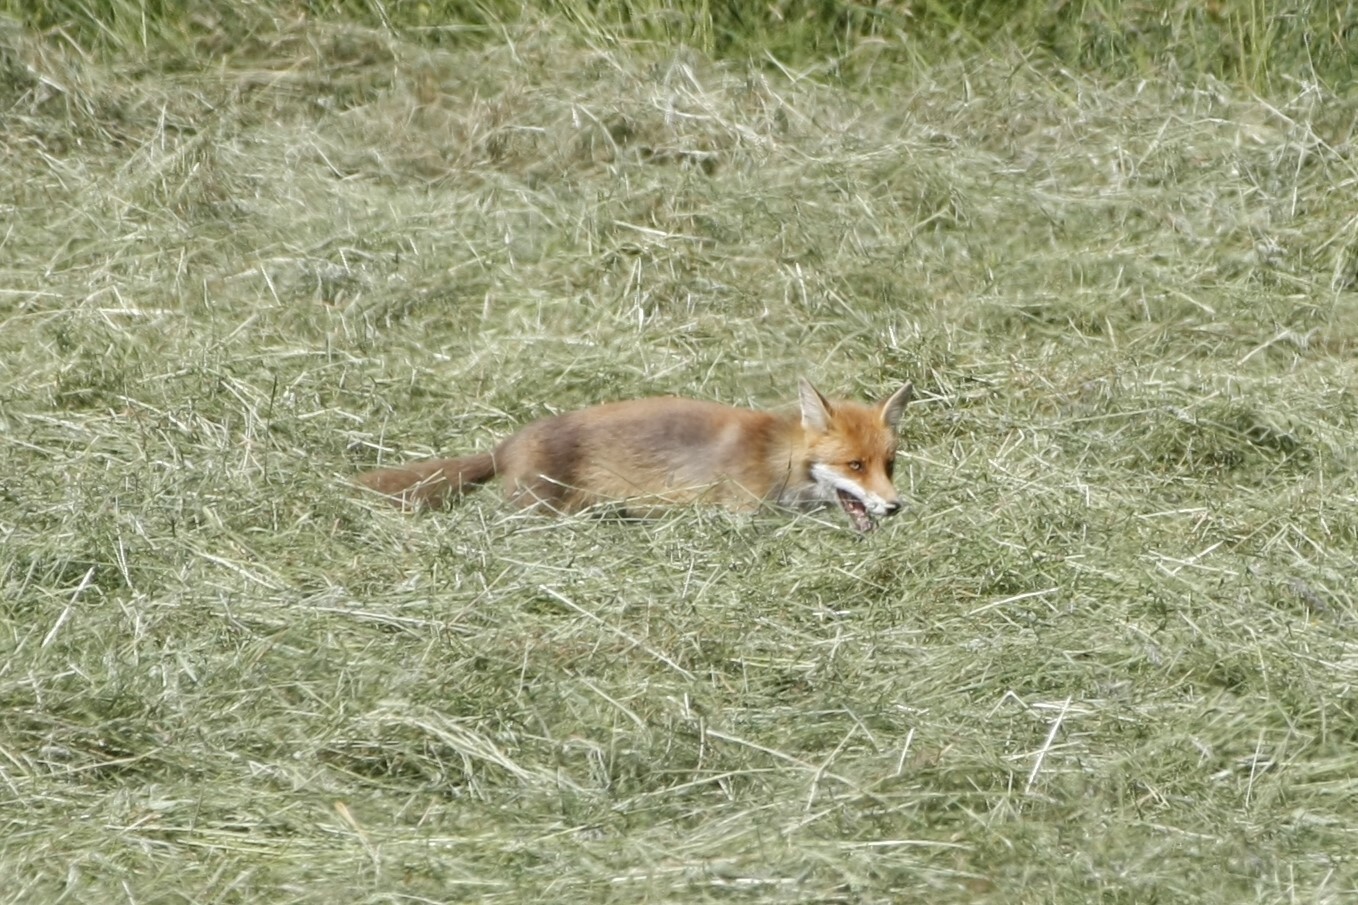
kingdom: Animalia
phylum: Chordata
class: Mammalia
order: Carnivora
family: Canidae
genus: Vulpes
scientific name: Vulpes vulpes
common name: Red fox
